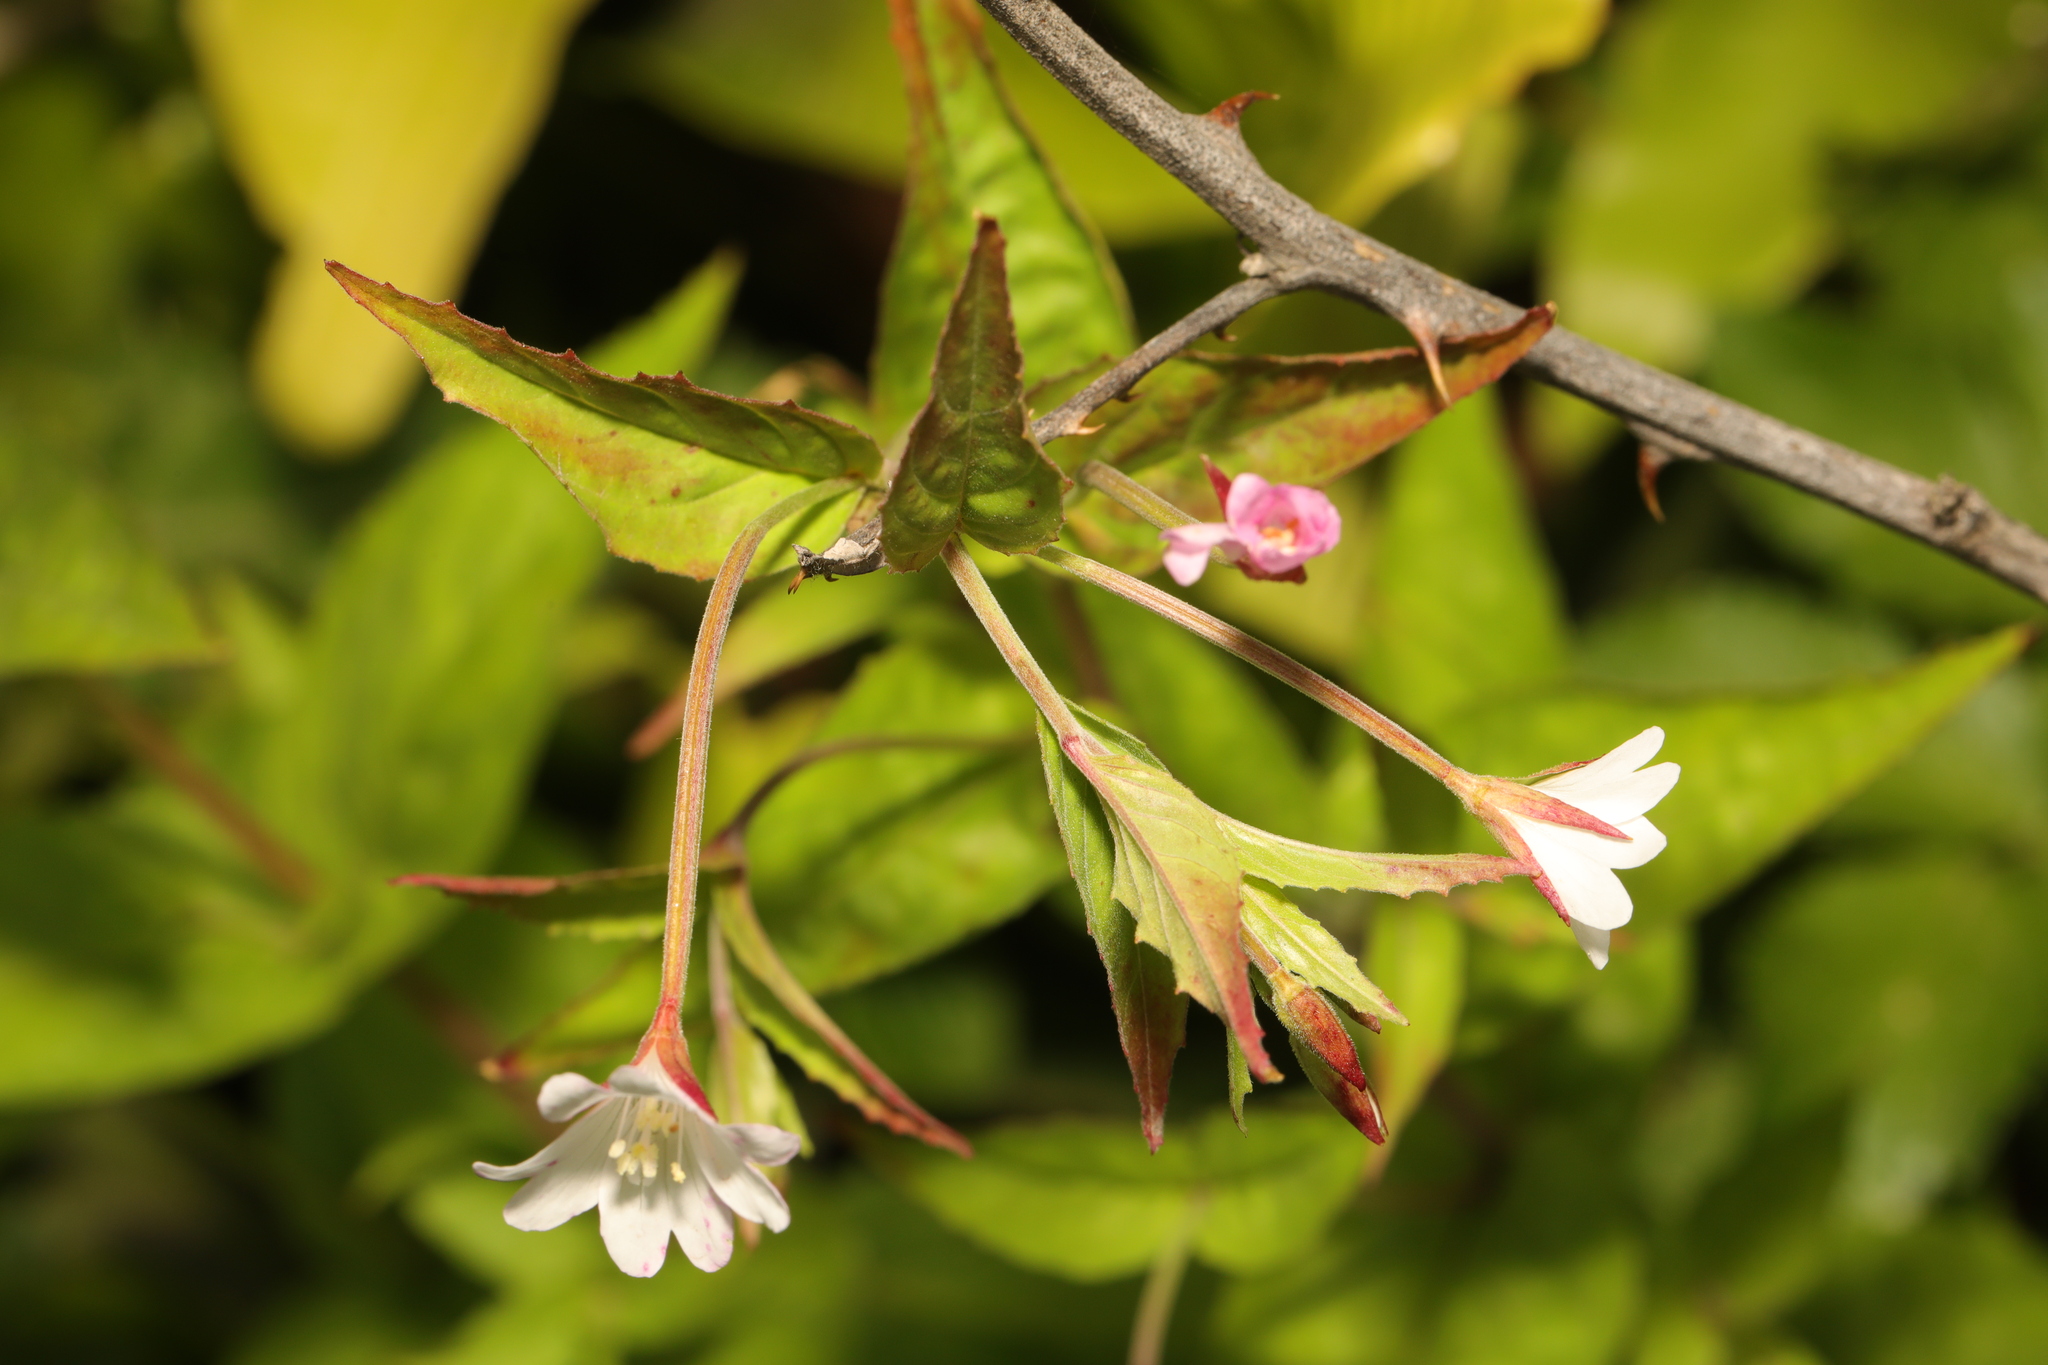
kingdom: Plantae
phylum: Tracheophyta
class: Magnoliopsida
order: Myrtales
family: Onagraceae
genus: Epilobium
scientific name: Epilobium montanum
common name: Broad-leaved willowherb
